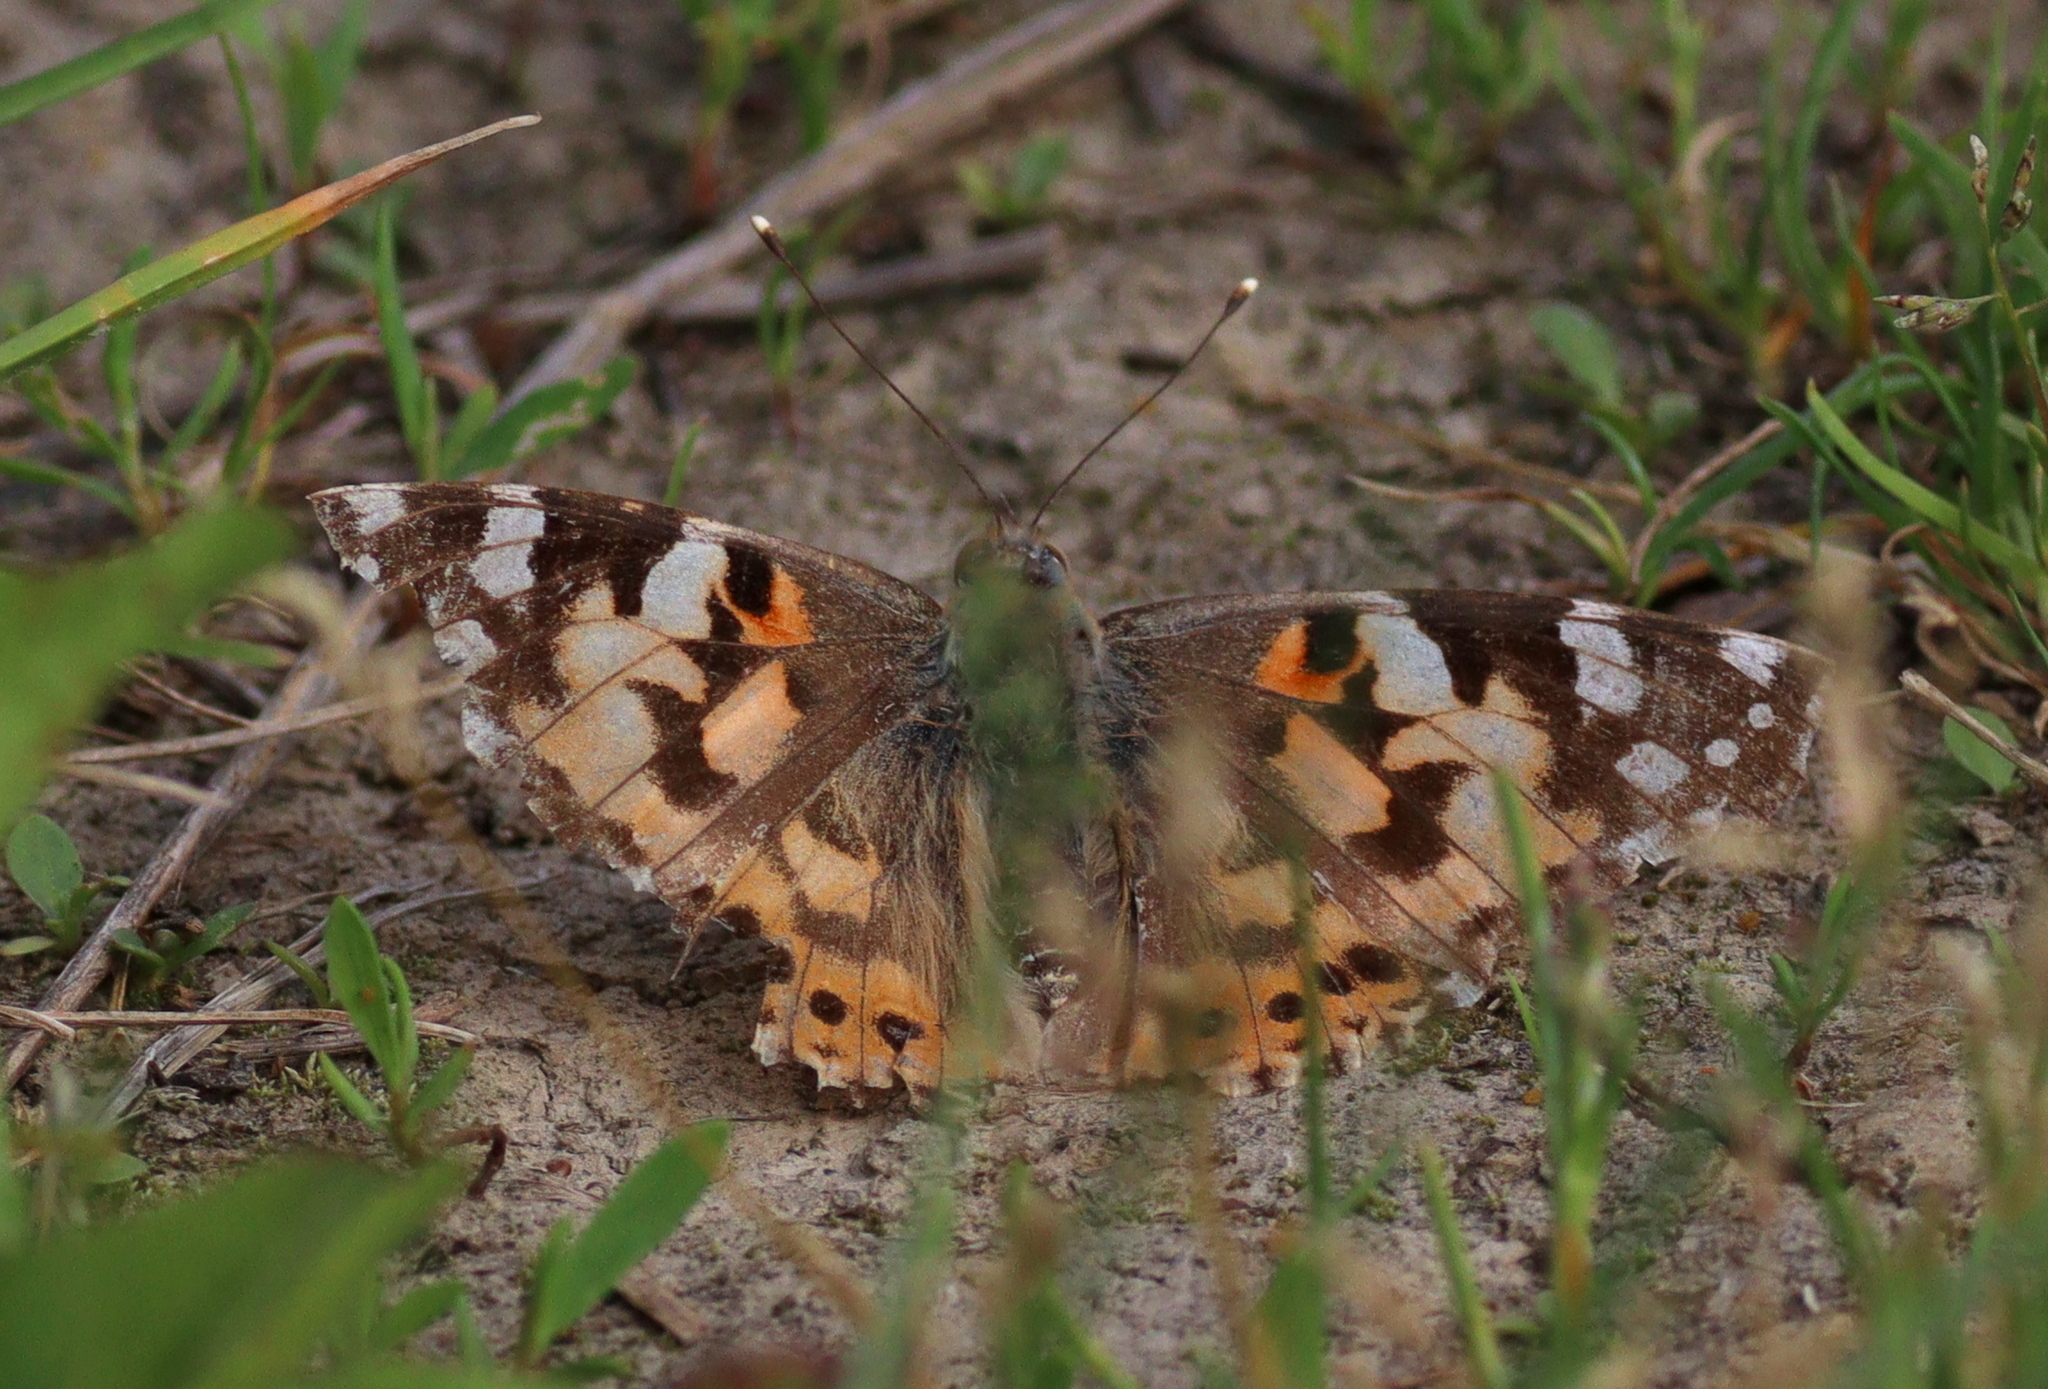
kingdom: Animalia
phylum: Arthropoda
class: Insecta
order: Lepidoptera
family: Nymphalidae
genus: Vanessa
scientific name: Vanessa cardui
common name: Painted lady
